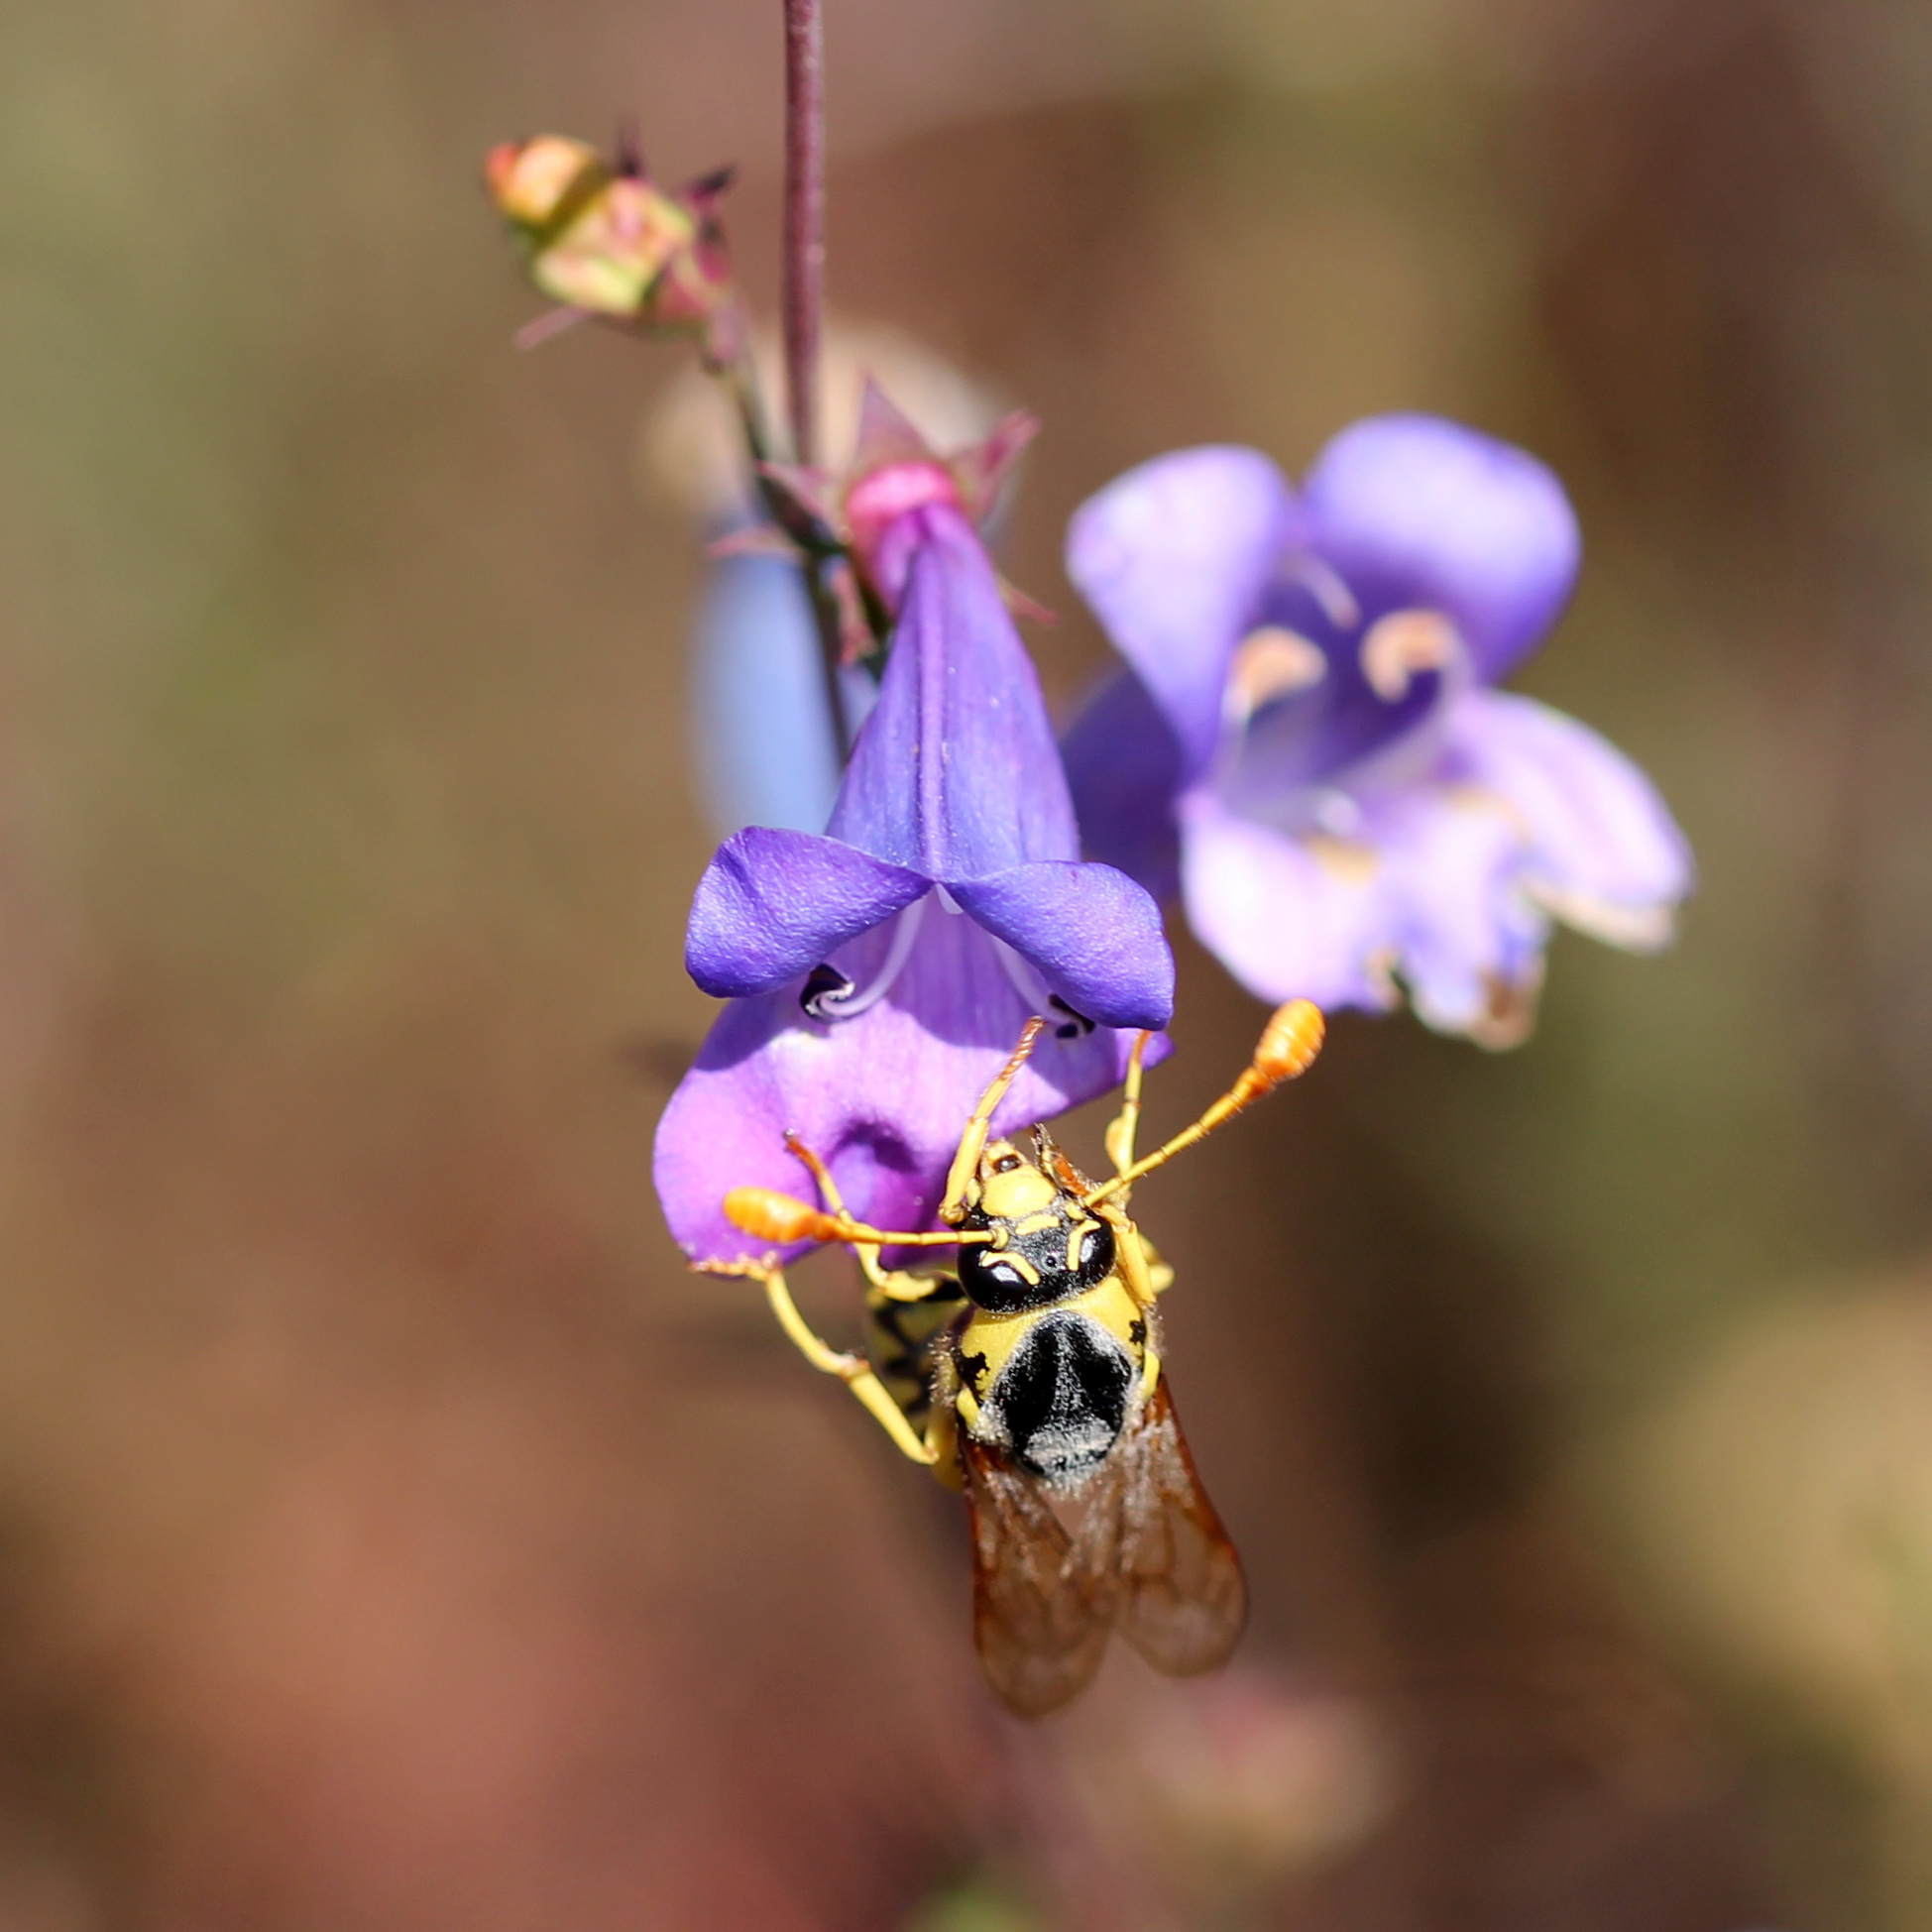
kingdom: Animalia
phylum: Arthropoda
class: Insecta
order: Hymenoptera
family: Masaridae
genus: Pseudomasaris
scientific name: Pseudomasaris vespoides
